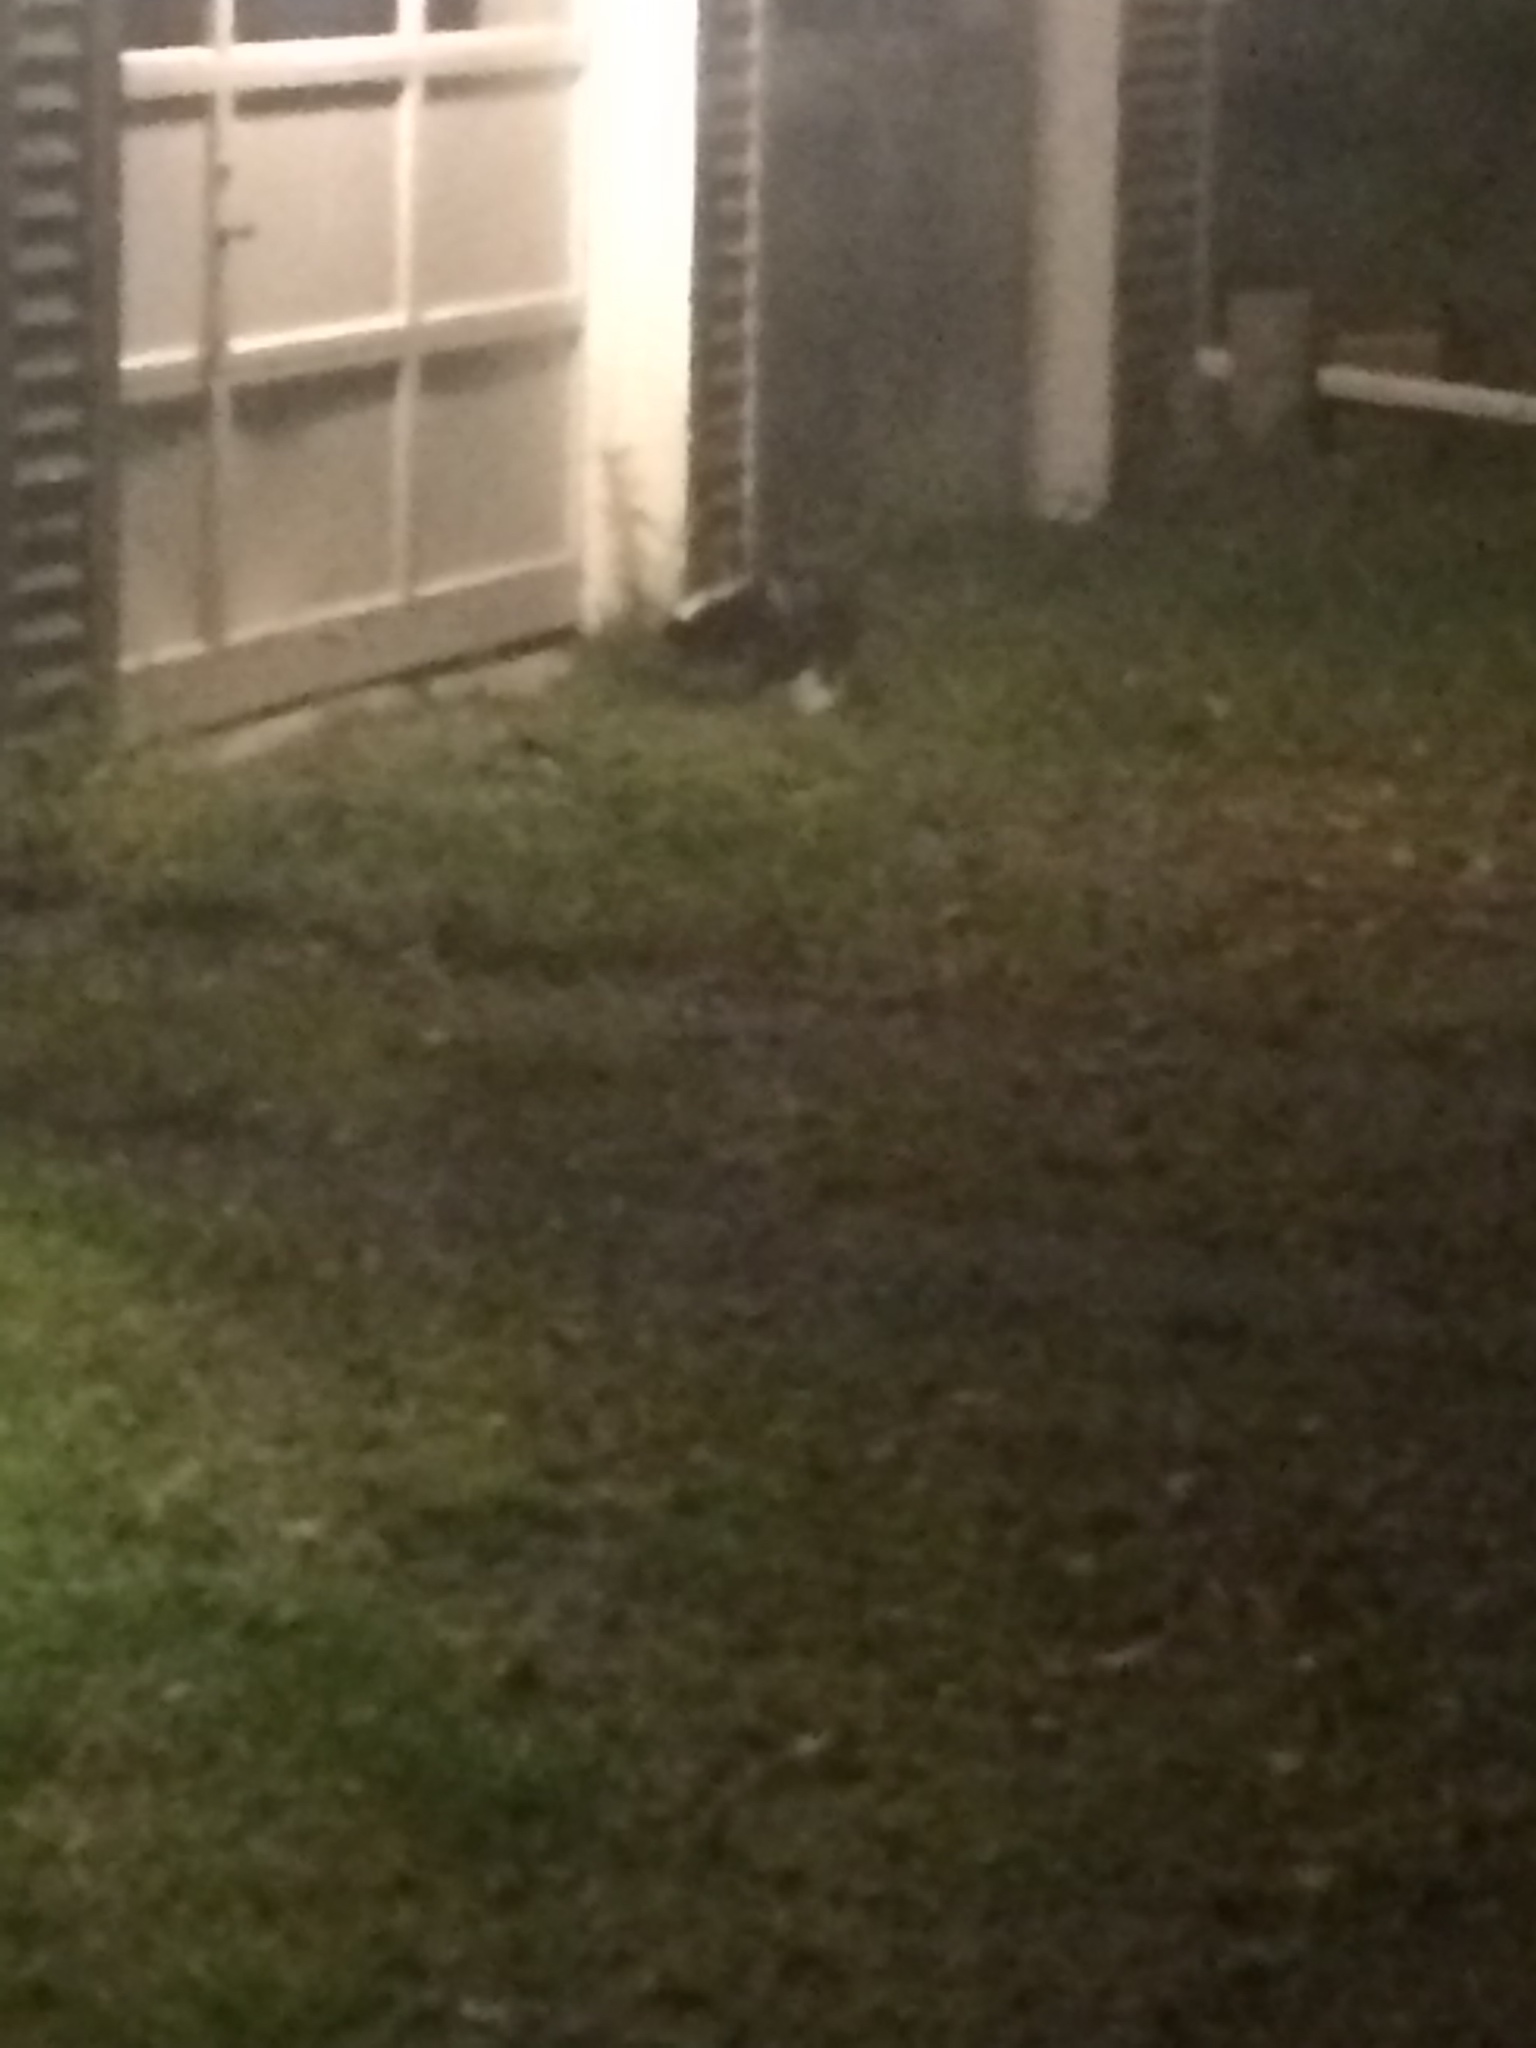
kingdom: Animalia
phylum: Chordata
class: Mammalia
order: Carnivora
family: Mephitidae
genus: Mephitis
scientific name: Mephitis mephitis
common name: Striped skunk
